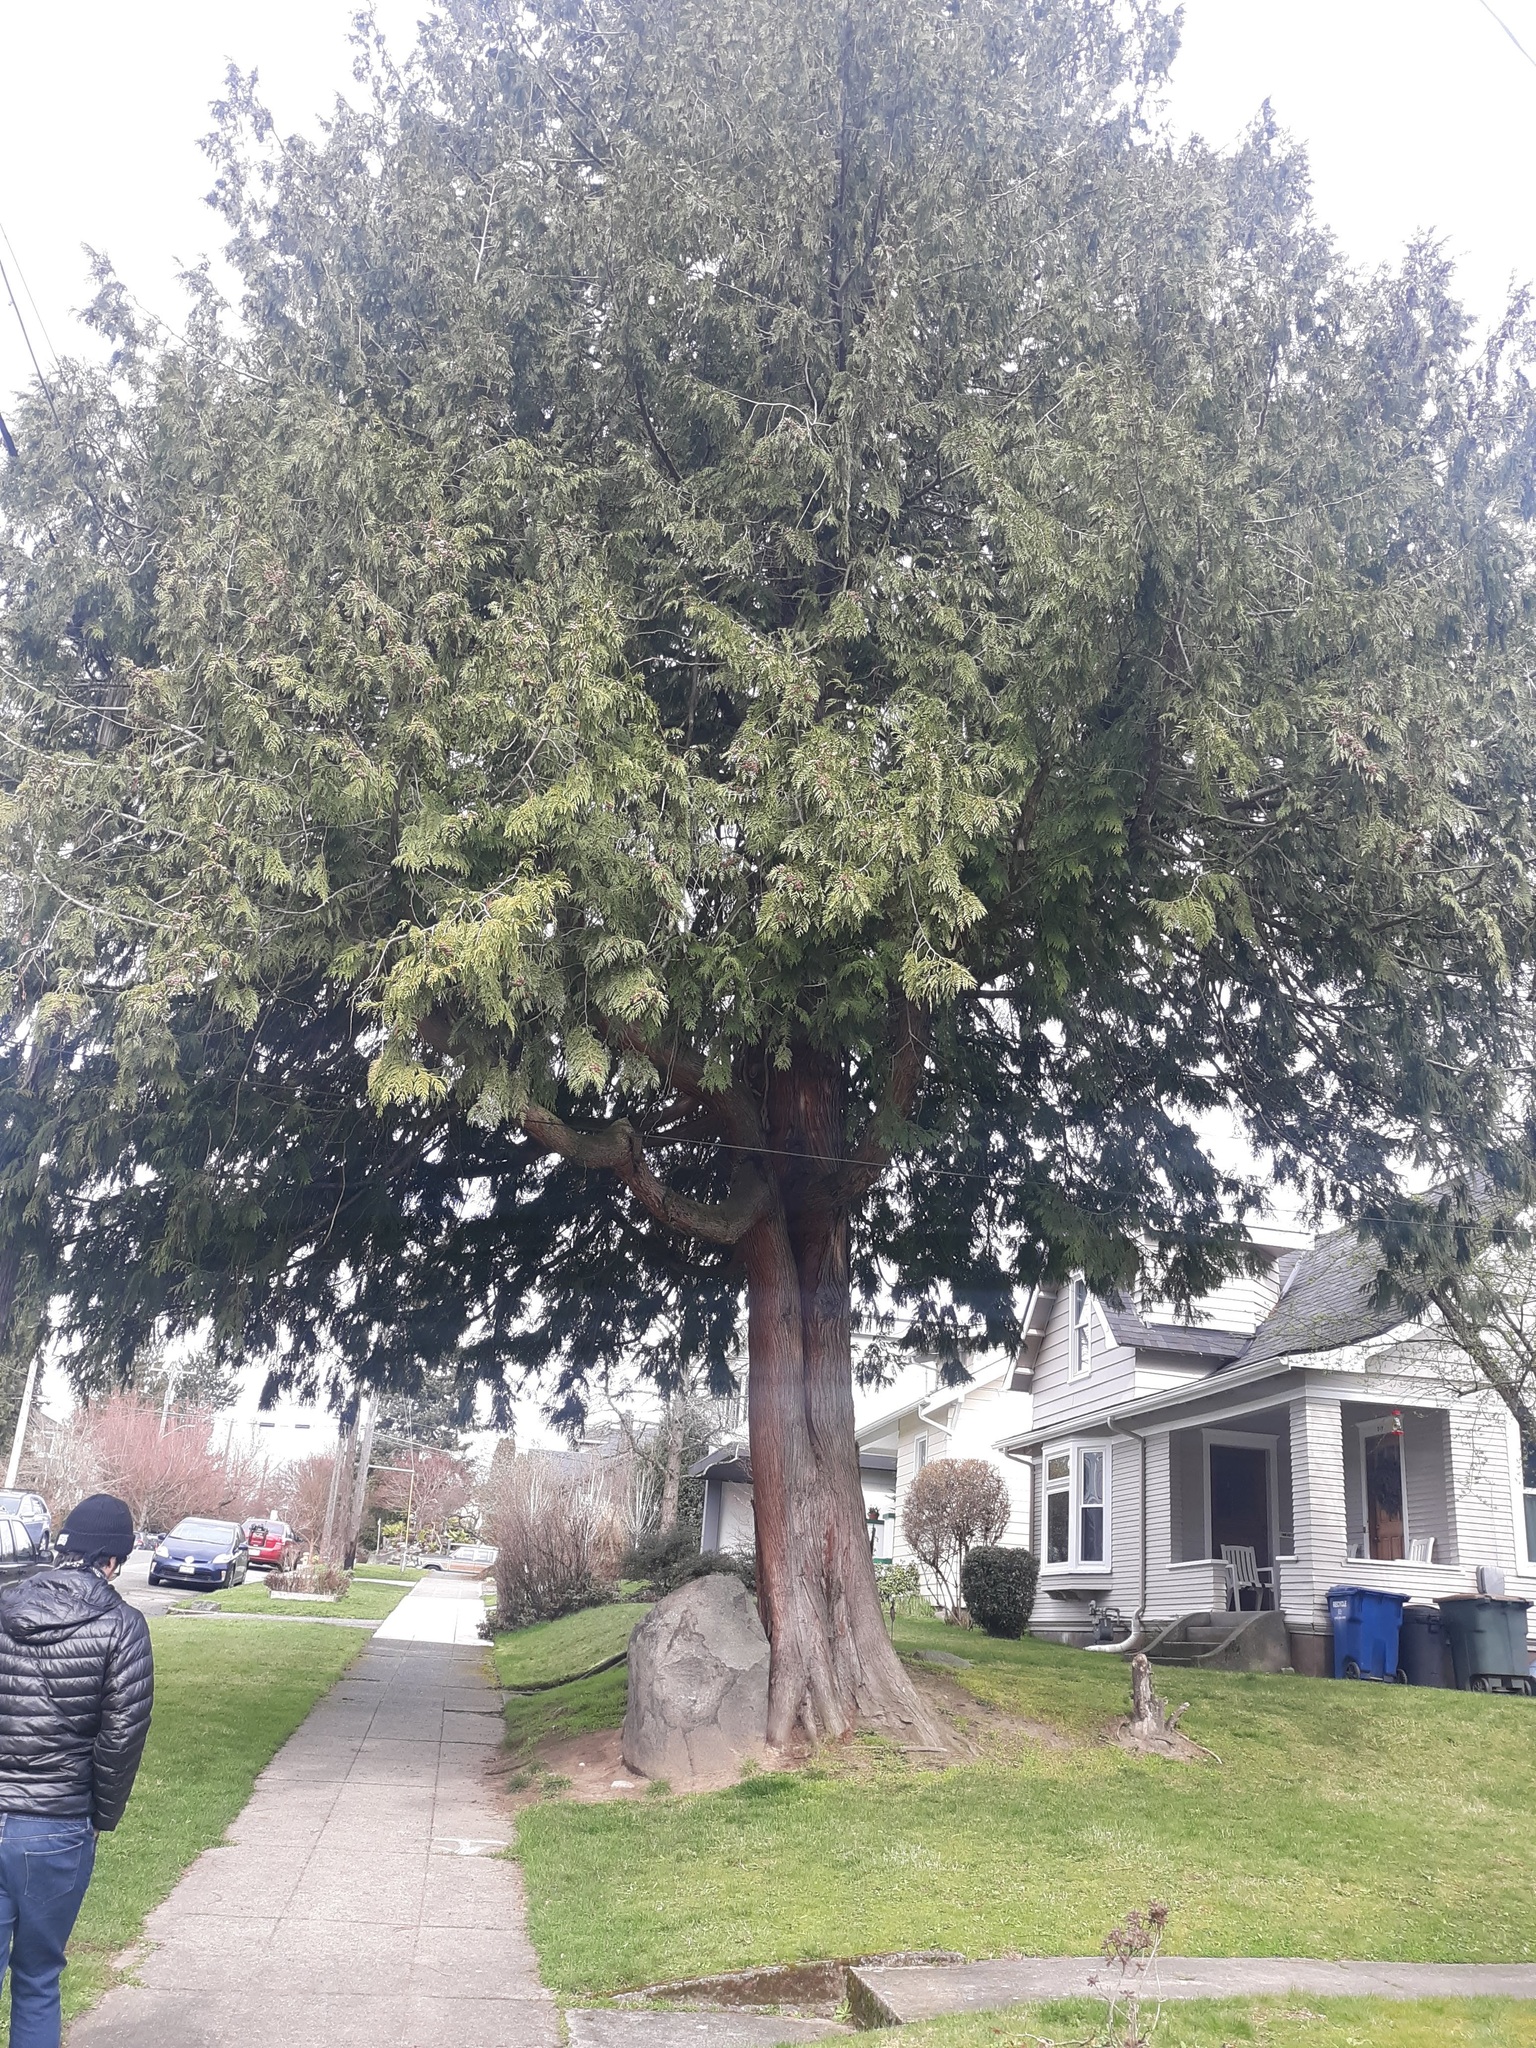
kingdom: Plantae
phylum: Tracheophyta
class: Pinopsida
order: Pinales
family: Cupressaceae
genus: Thuja
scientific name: Thuja plicata
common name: Western red-cedar
